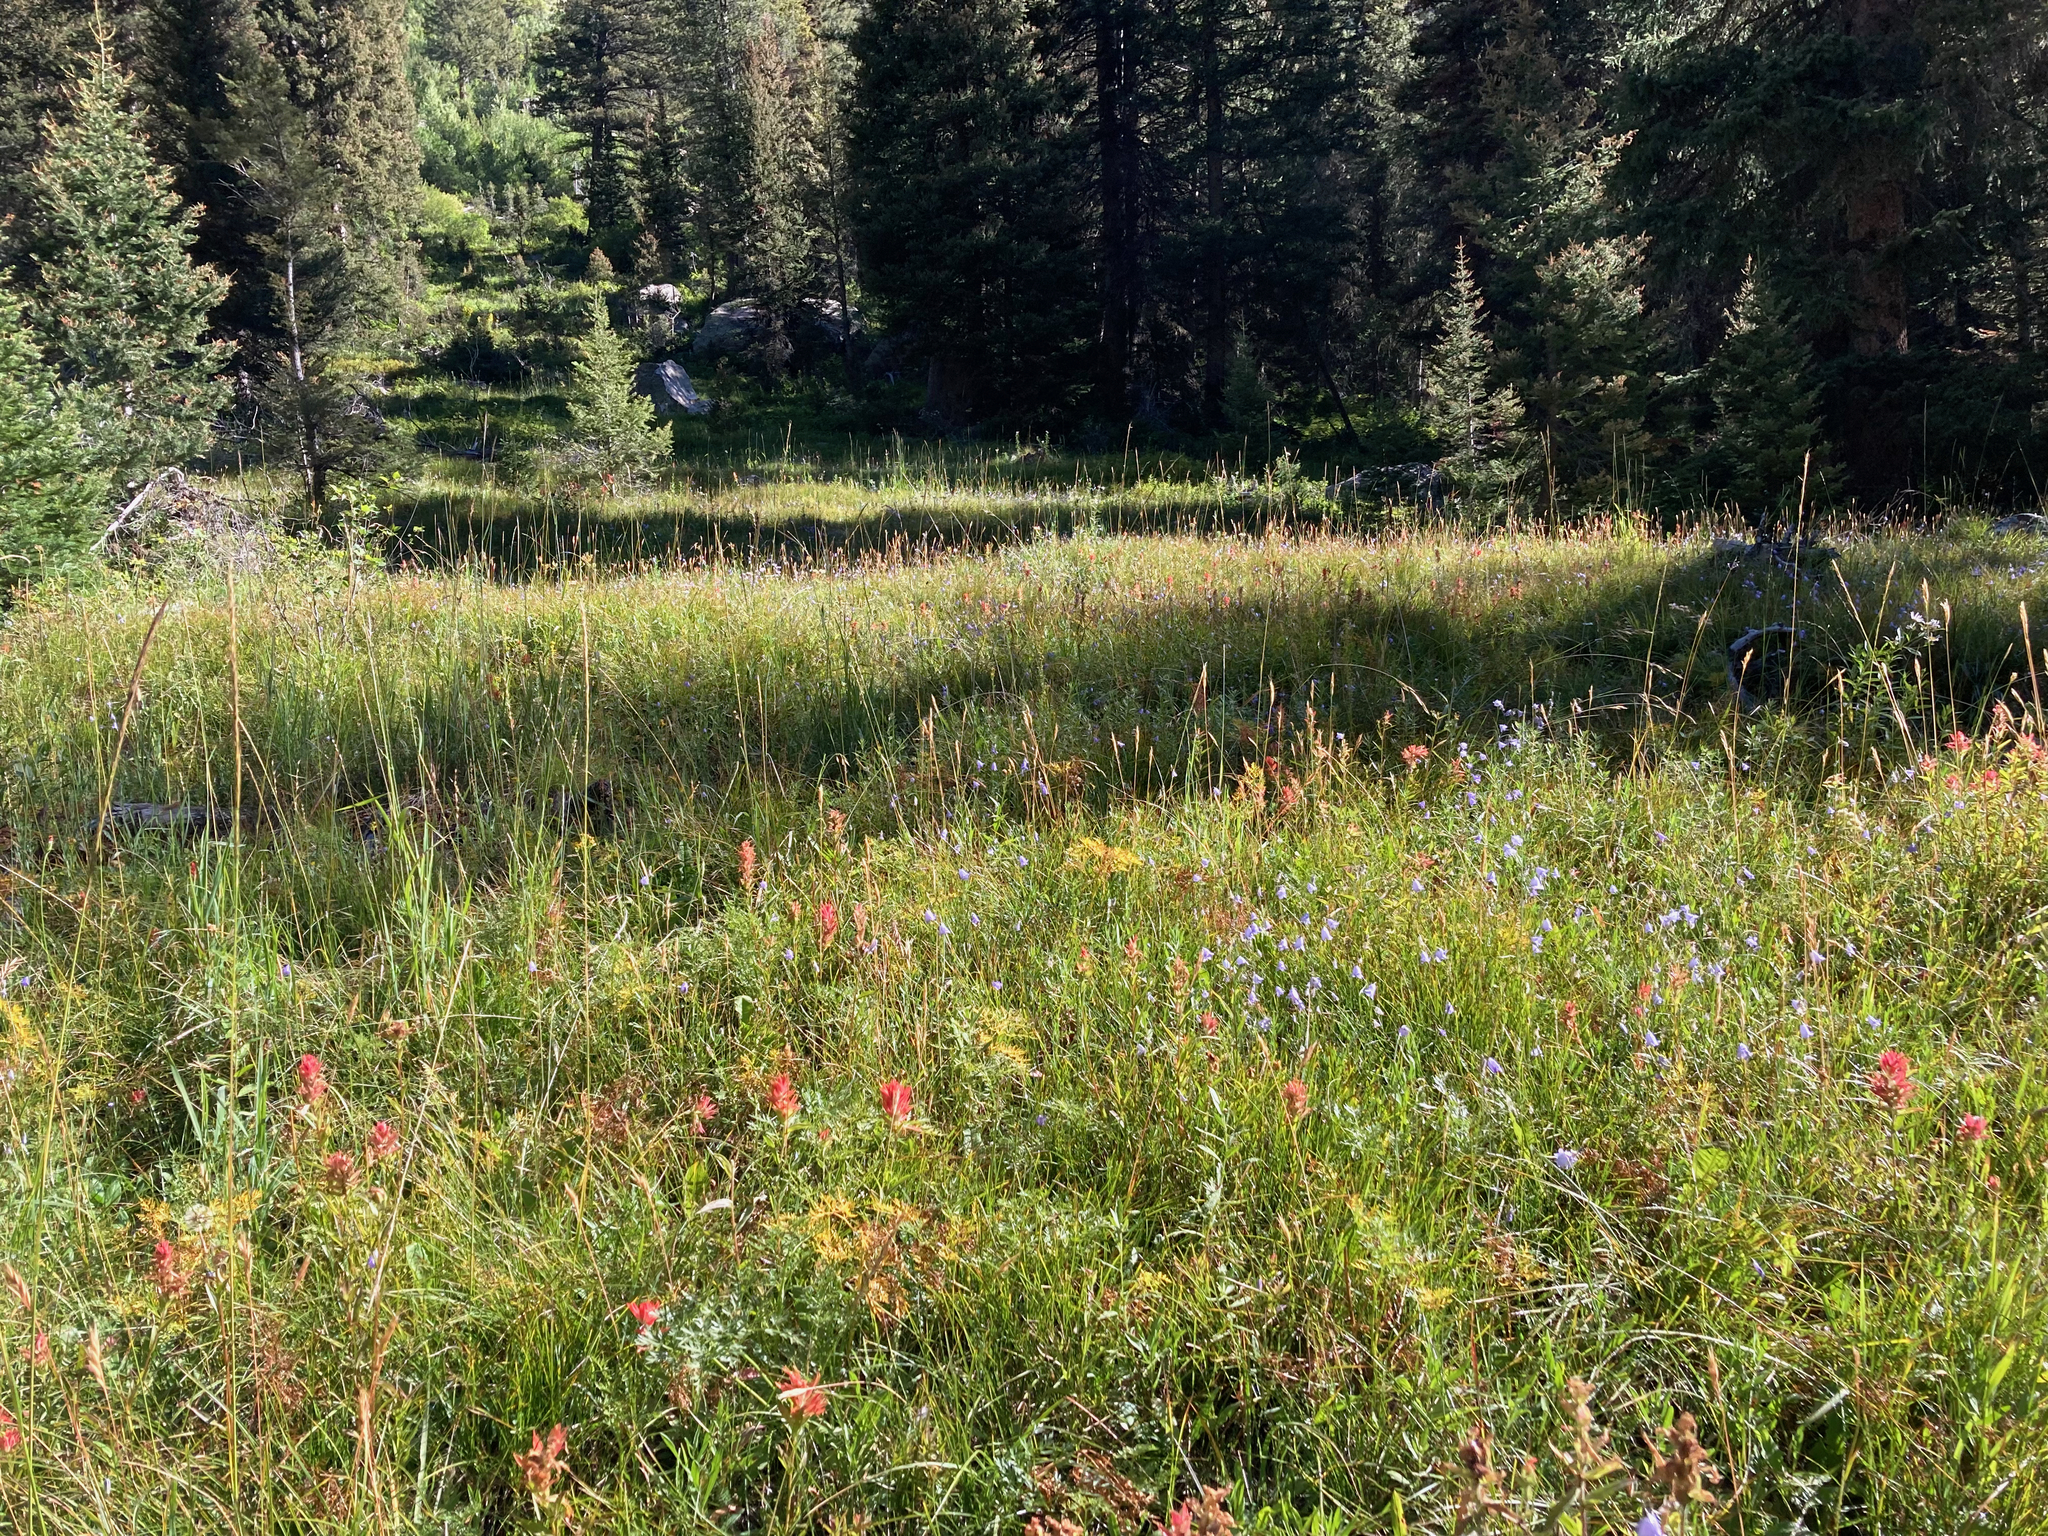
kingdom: Plantae
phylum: Tracheophyta
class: Magnoliopsida
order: Asterales
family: Campanulaceae
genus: Campanula
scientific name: Campanula
